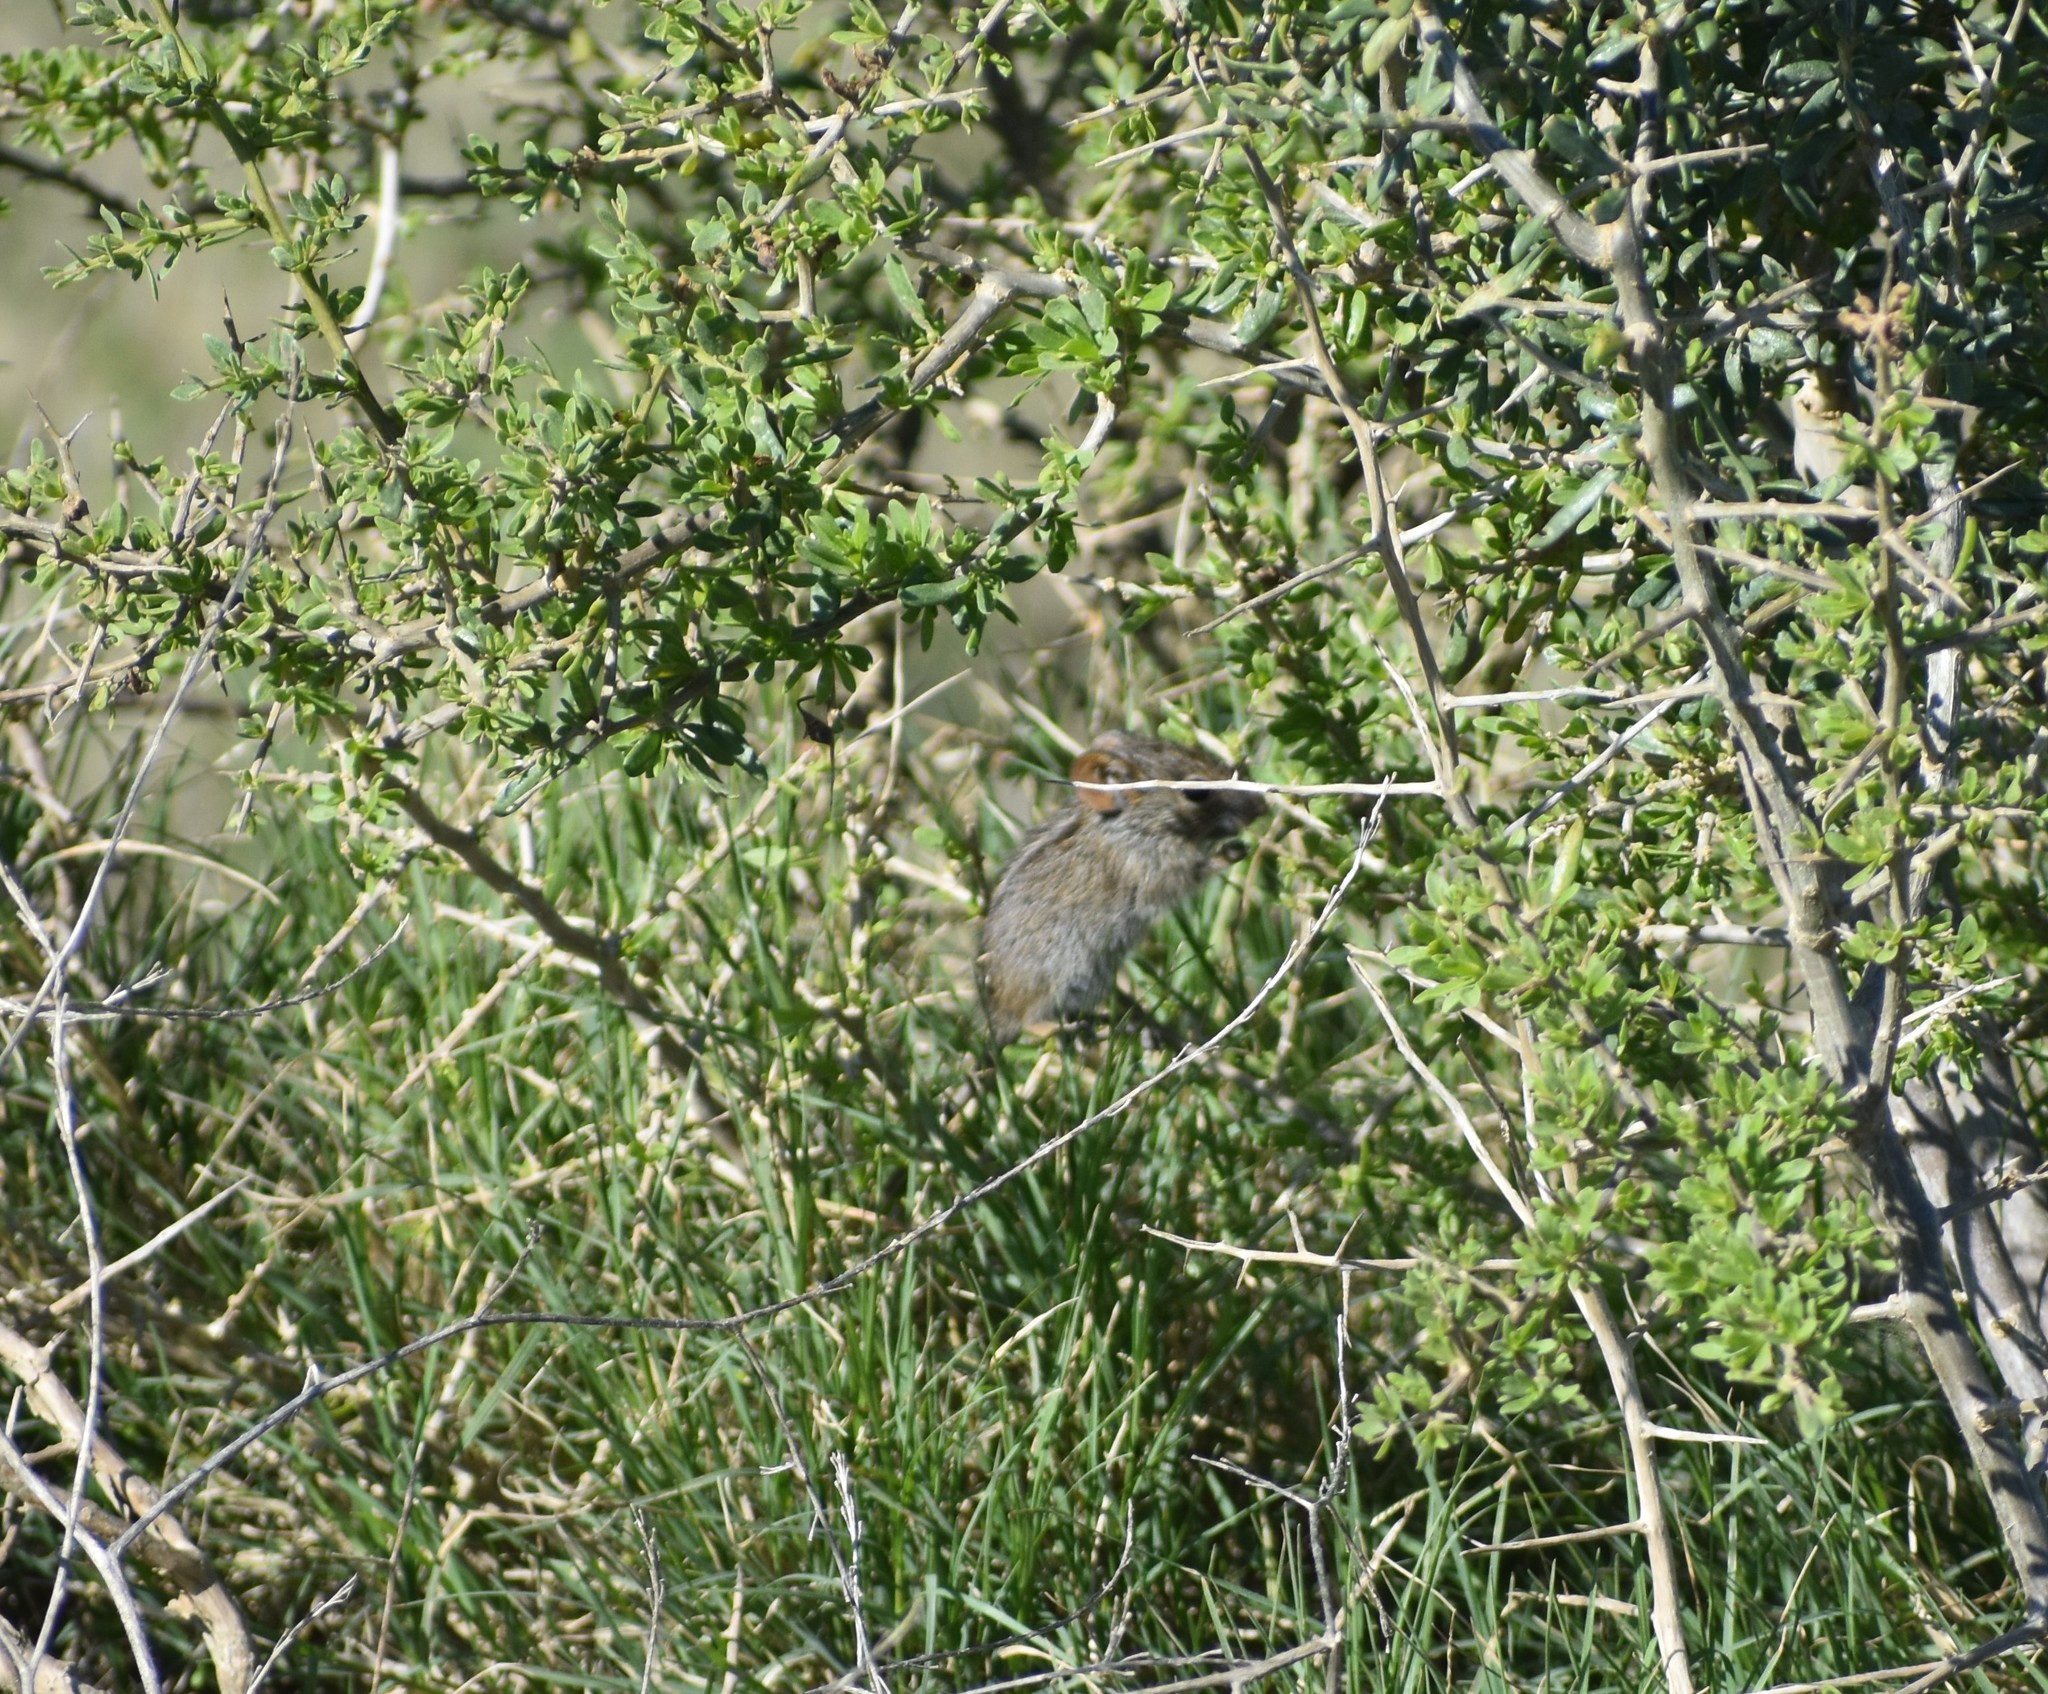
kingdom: Animalia
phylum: Chordata
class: Mammalia
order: Rodentia
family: Muridae
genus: Rhabdomys
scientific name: Rhabdomys pumilio
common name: Xeric four-striped grass rat
